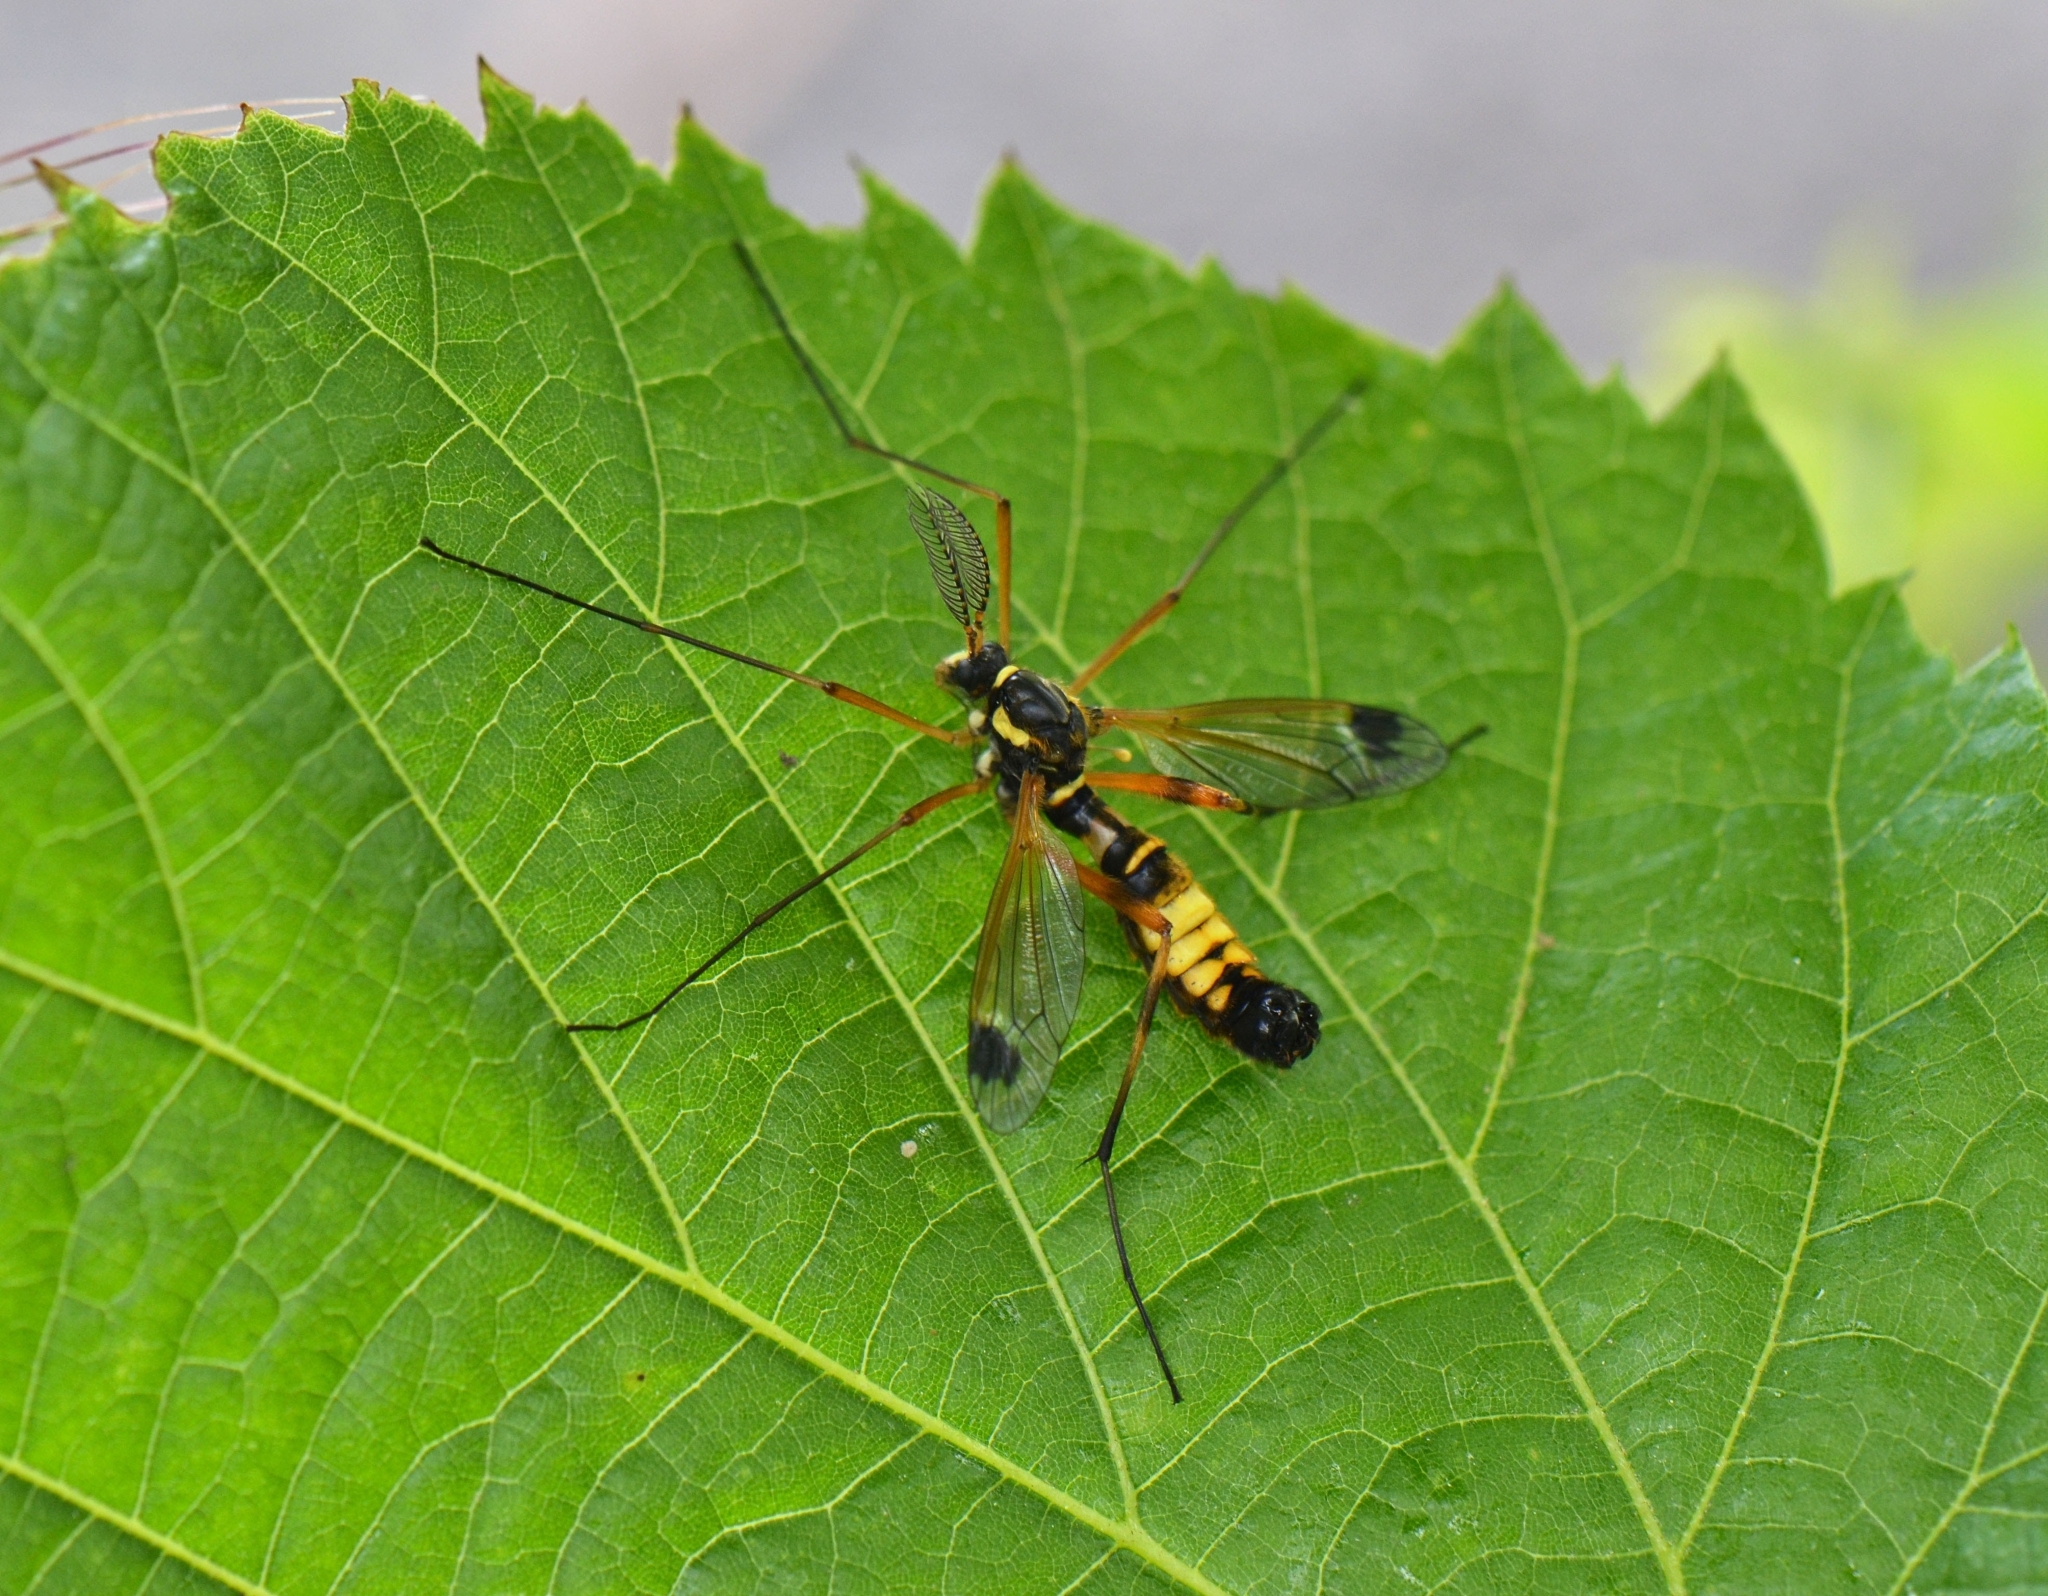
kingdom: Animalia
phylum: Arthropoda
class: Insecta
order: Diptera
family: Tipulidae
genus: Ctenophora
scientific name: Ctenophora festiva
